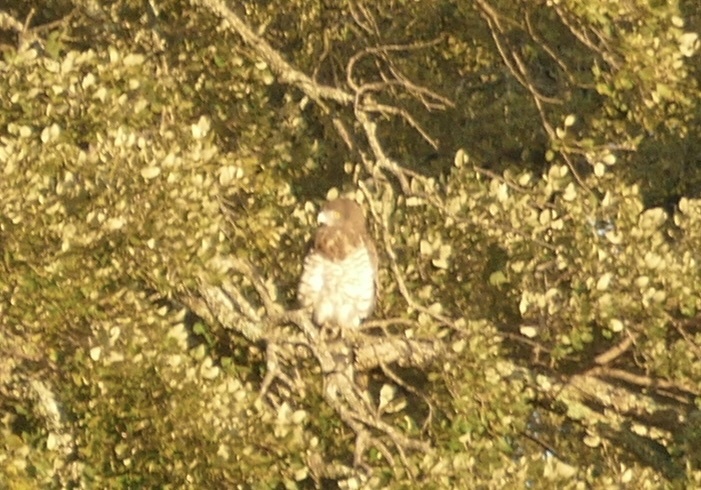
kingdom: Animalia
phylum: Chordata
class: Aves
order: Accipitriformes
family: Accipitridae
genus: Circaetus
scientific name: Circaetus gallicus
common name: Short-toed snake eagle
